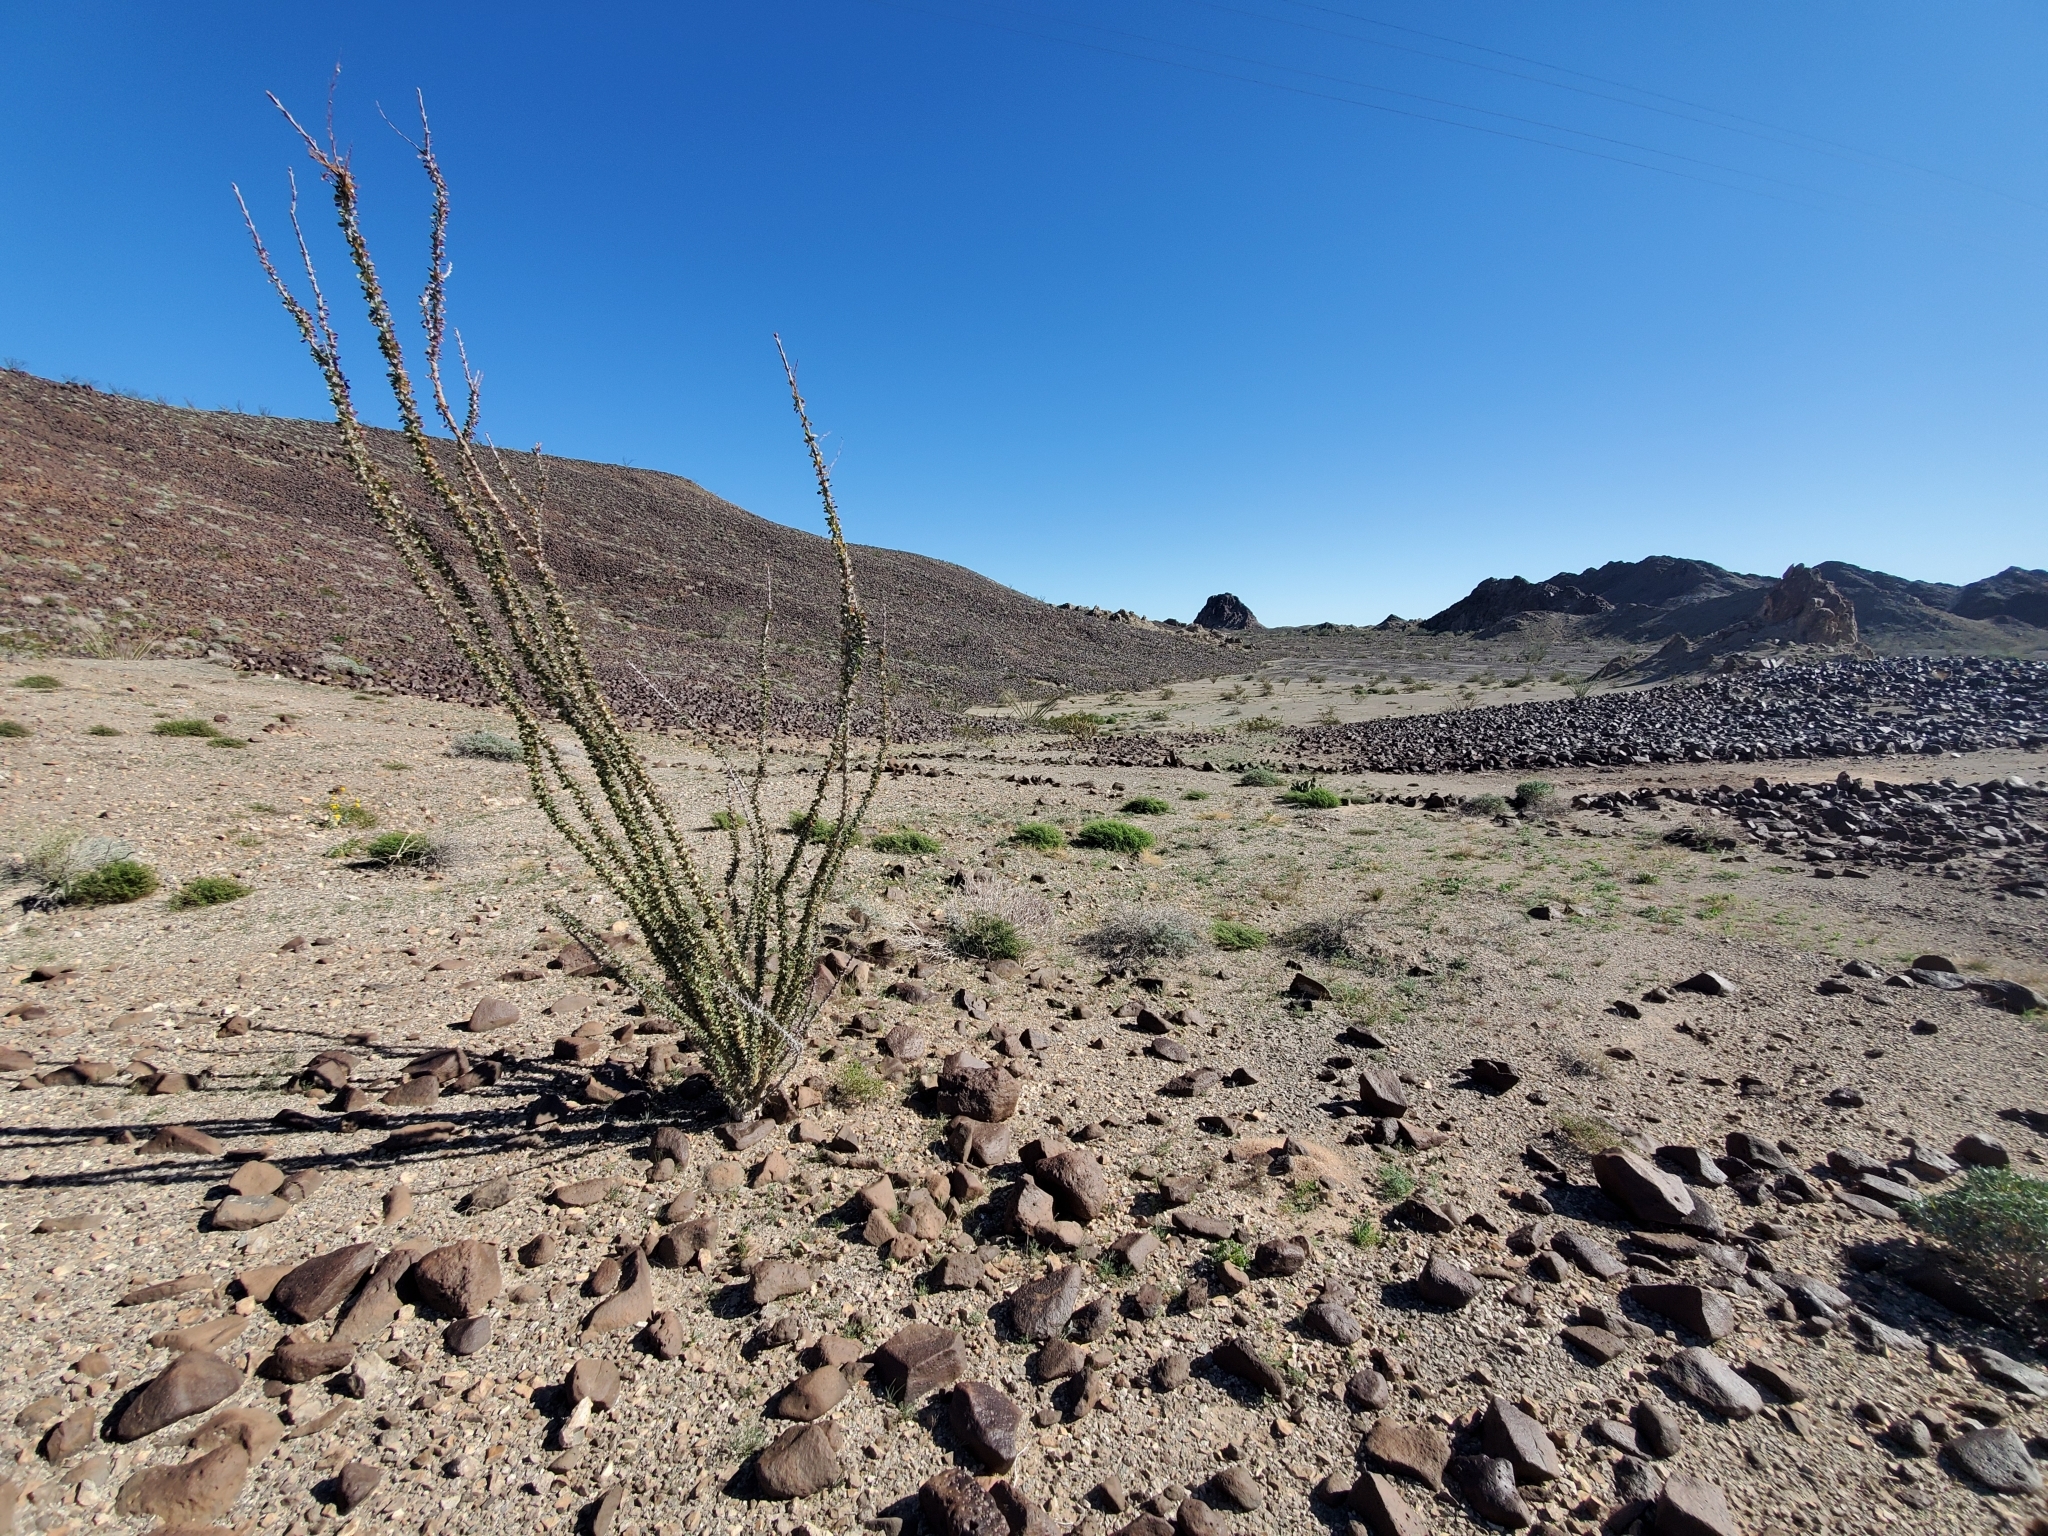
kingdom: Plantae
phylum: Tracheophyta
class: Magnoliopsida
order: Ericales
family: Fouquieriaceae
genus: Fouquieria
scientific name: Fouquieria splendens
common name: Vine-cactus
